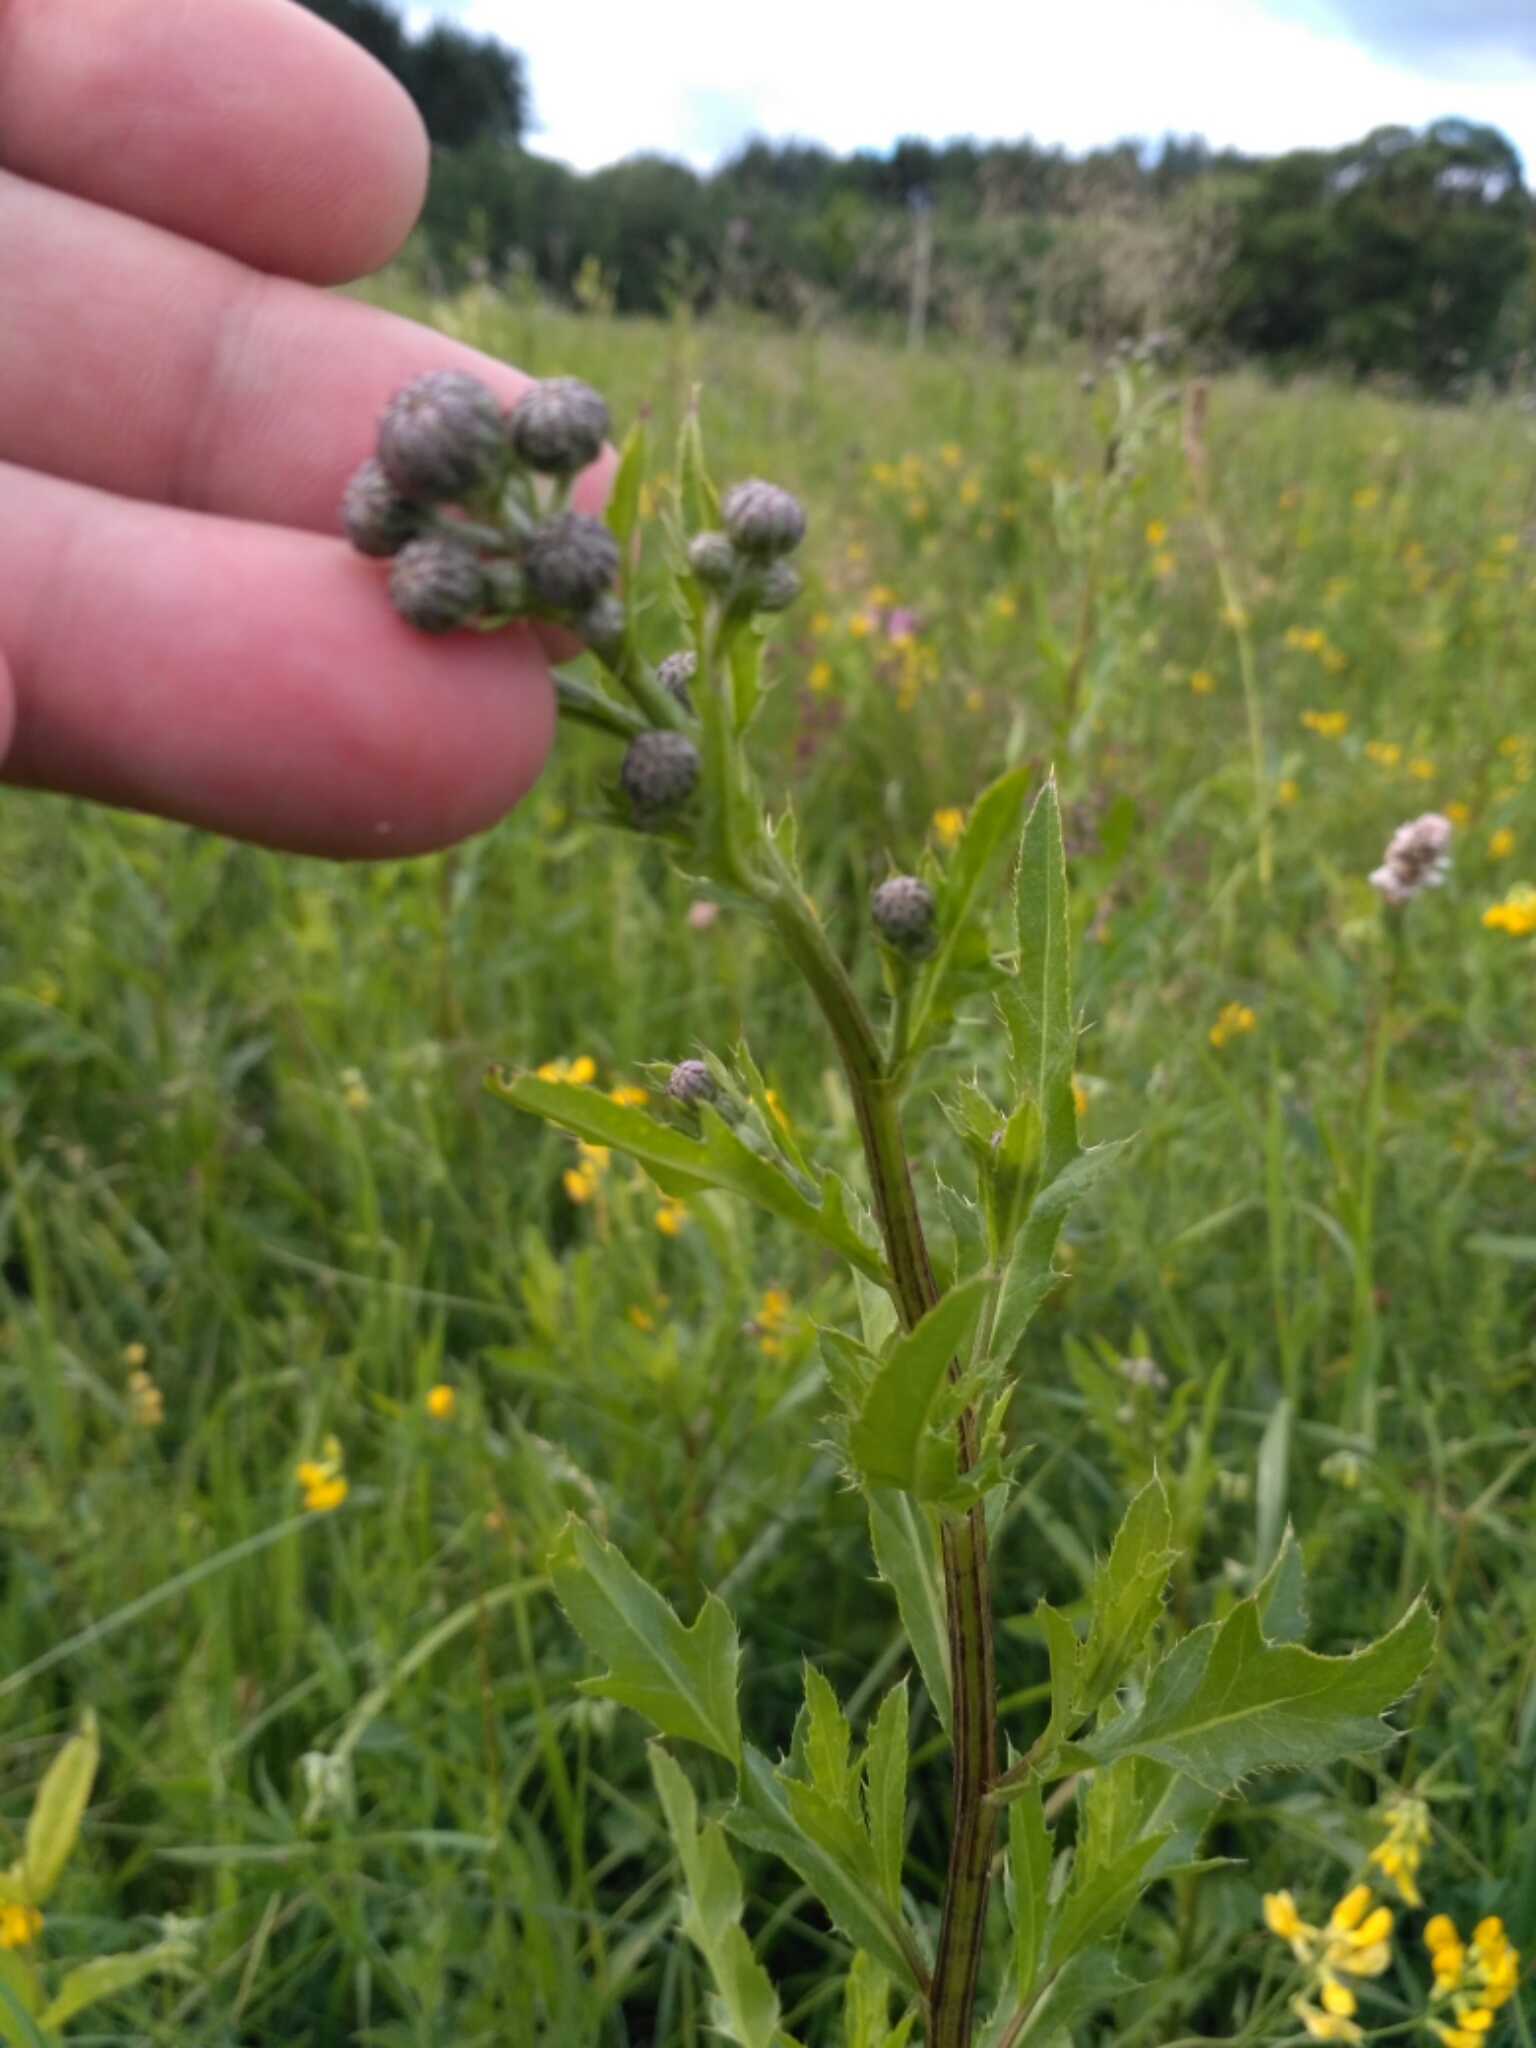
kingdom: Plantae
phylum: Tracheophyta
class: Magnoliopsida
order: Asterales
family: Asteraceae
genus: Cirsium
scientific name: Cirsium arvense
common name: Creeping thistle
